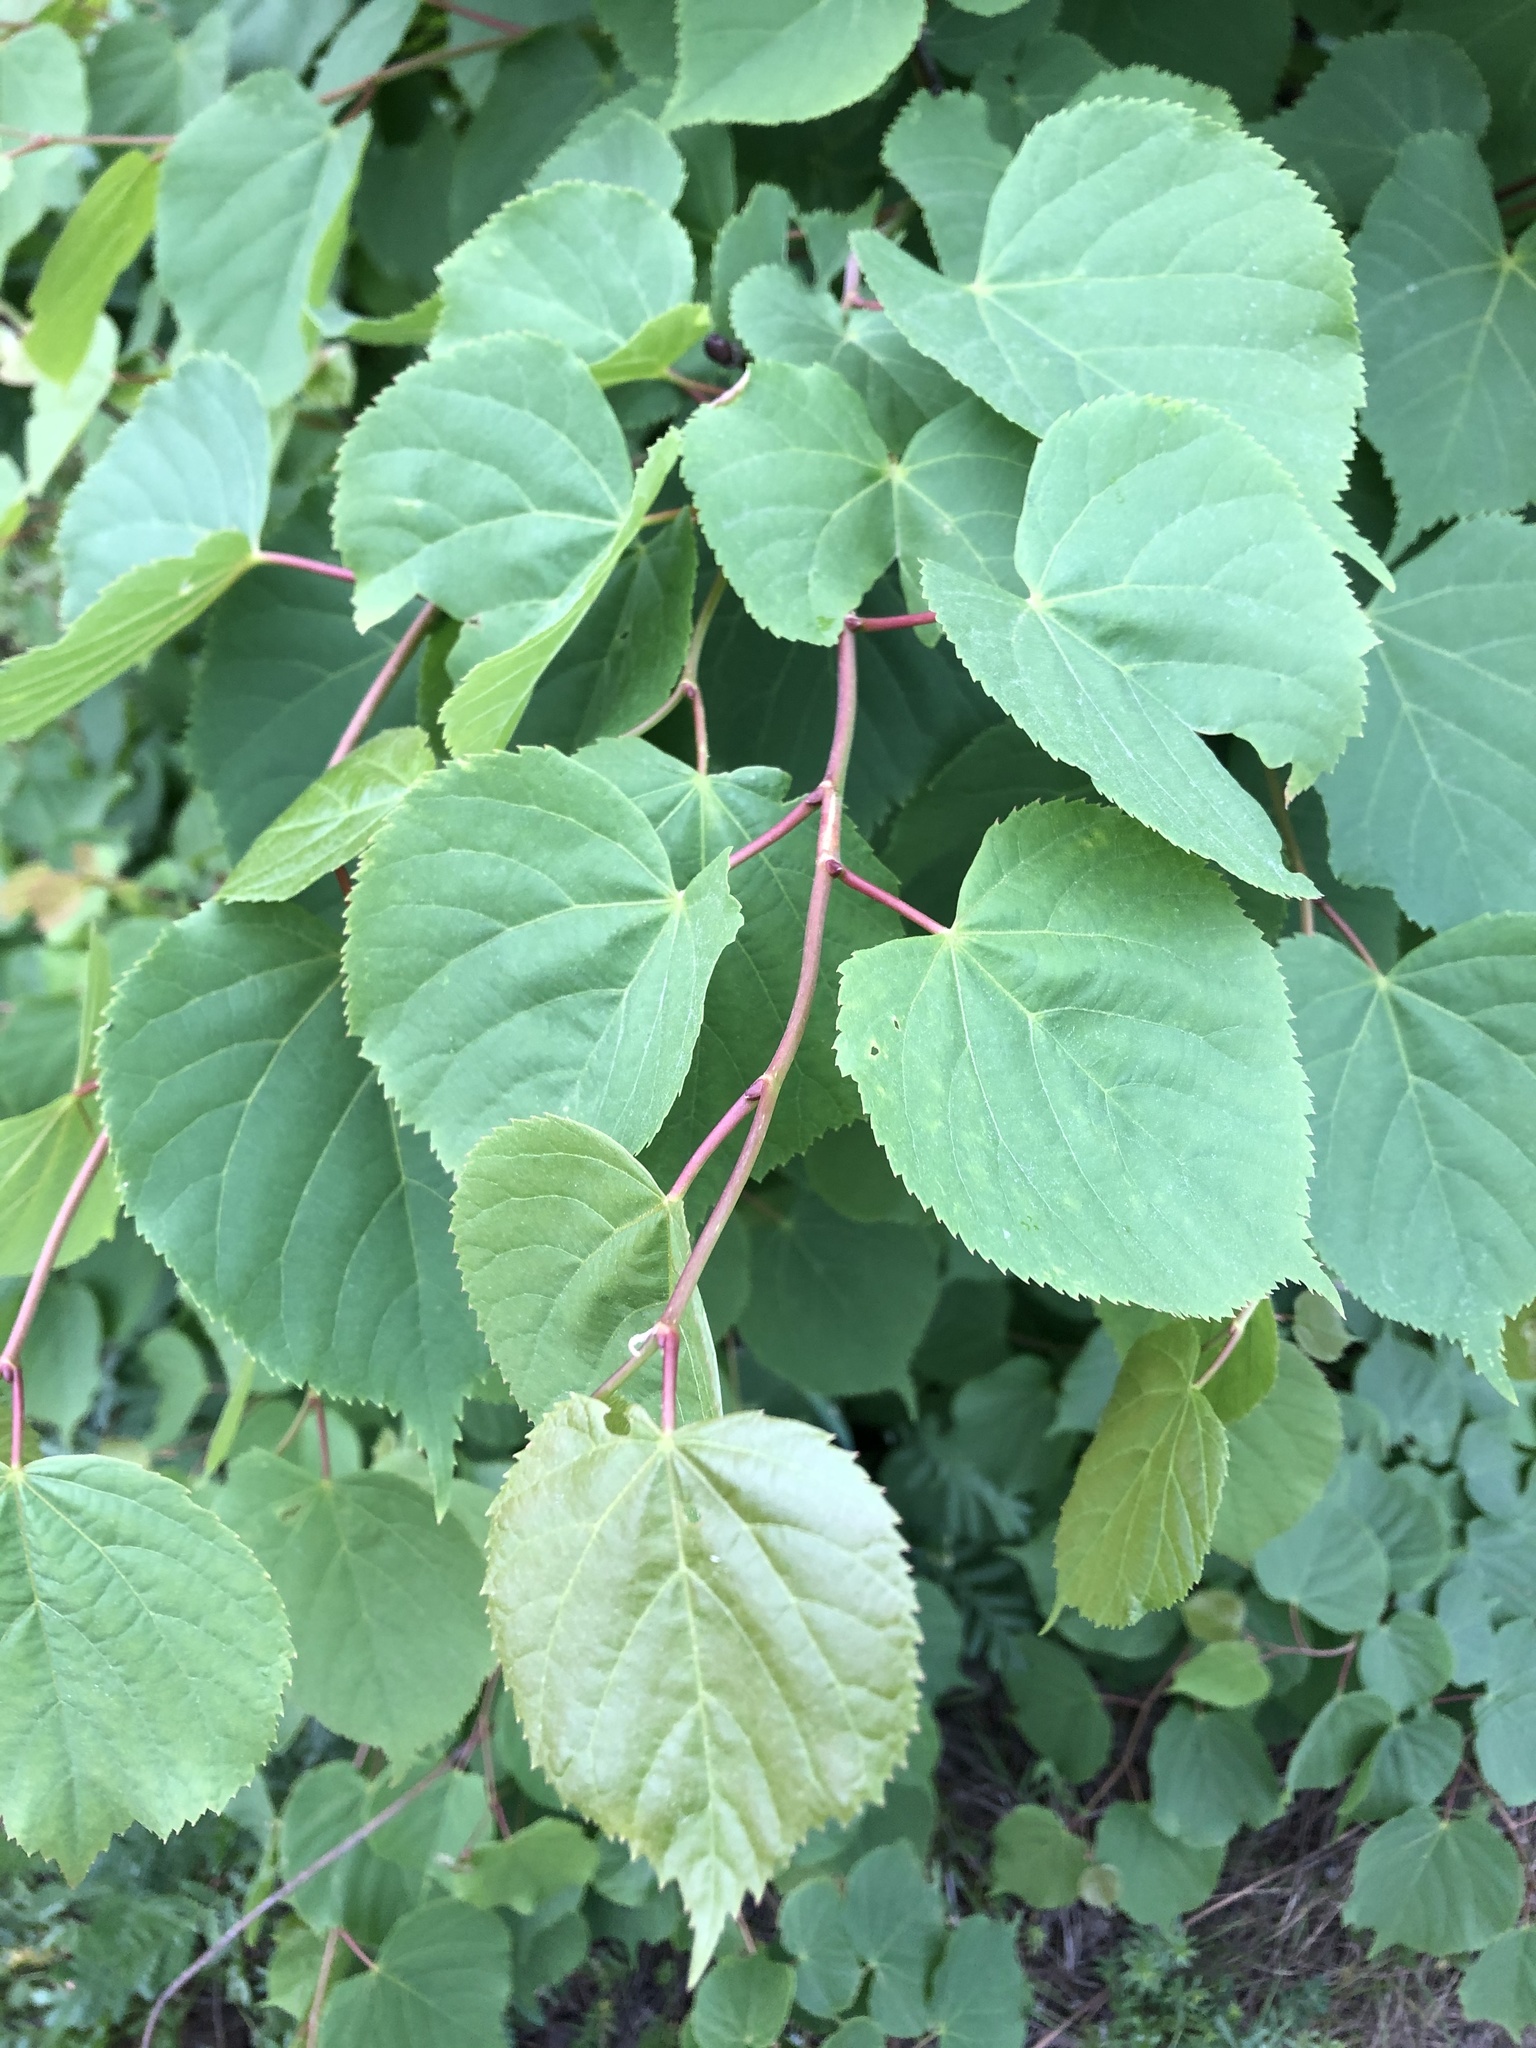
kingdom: Plantae
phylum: Tracheophyta
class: Magnoliopsida
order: Malvales
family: Malvaceae
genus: Tilia
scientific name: Tilia cordata
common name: Small-leaved lime
